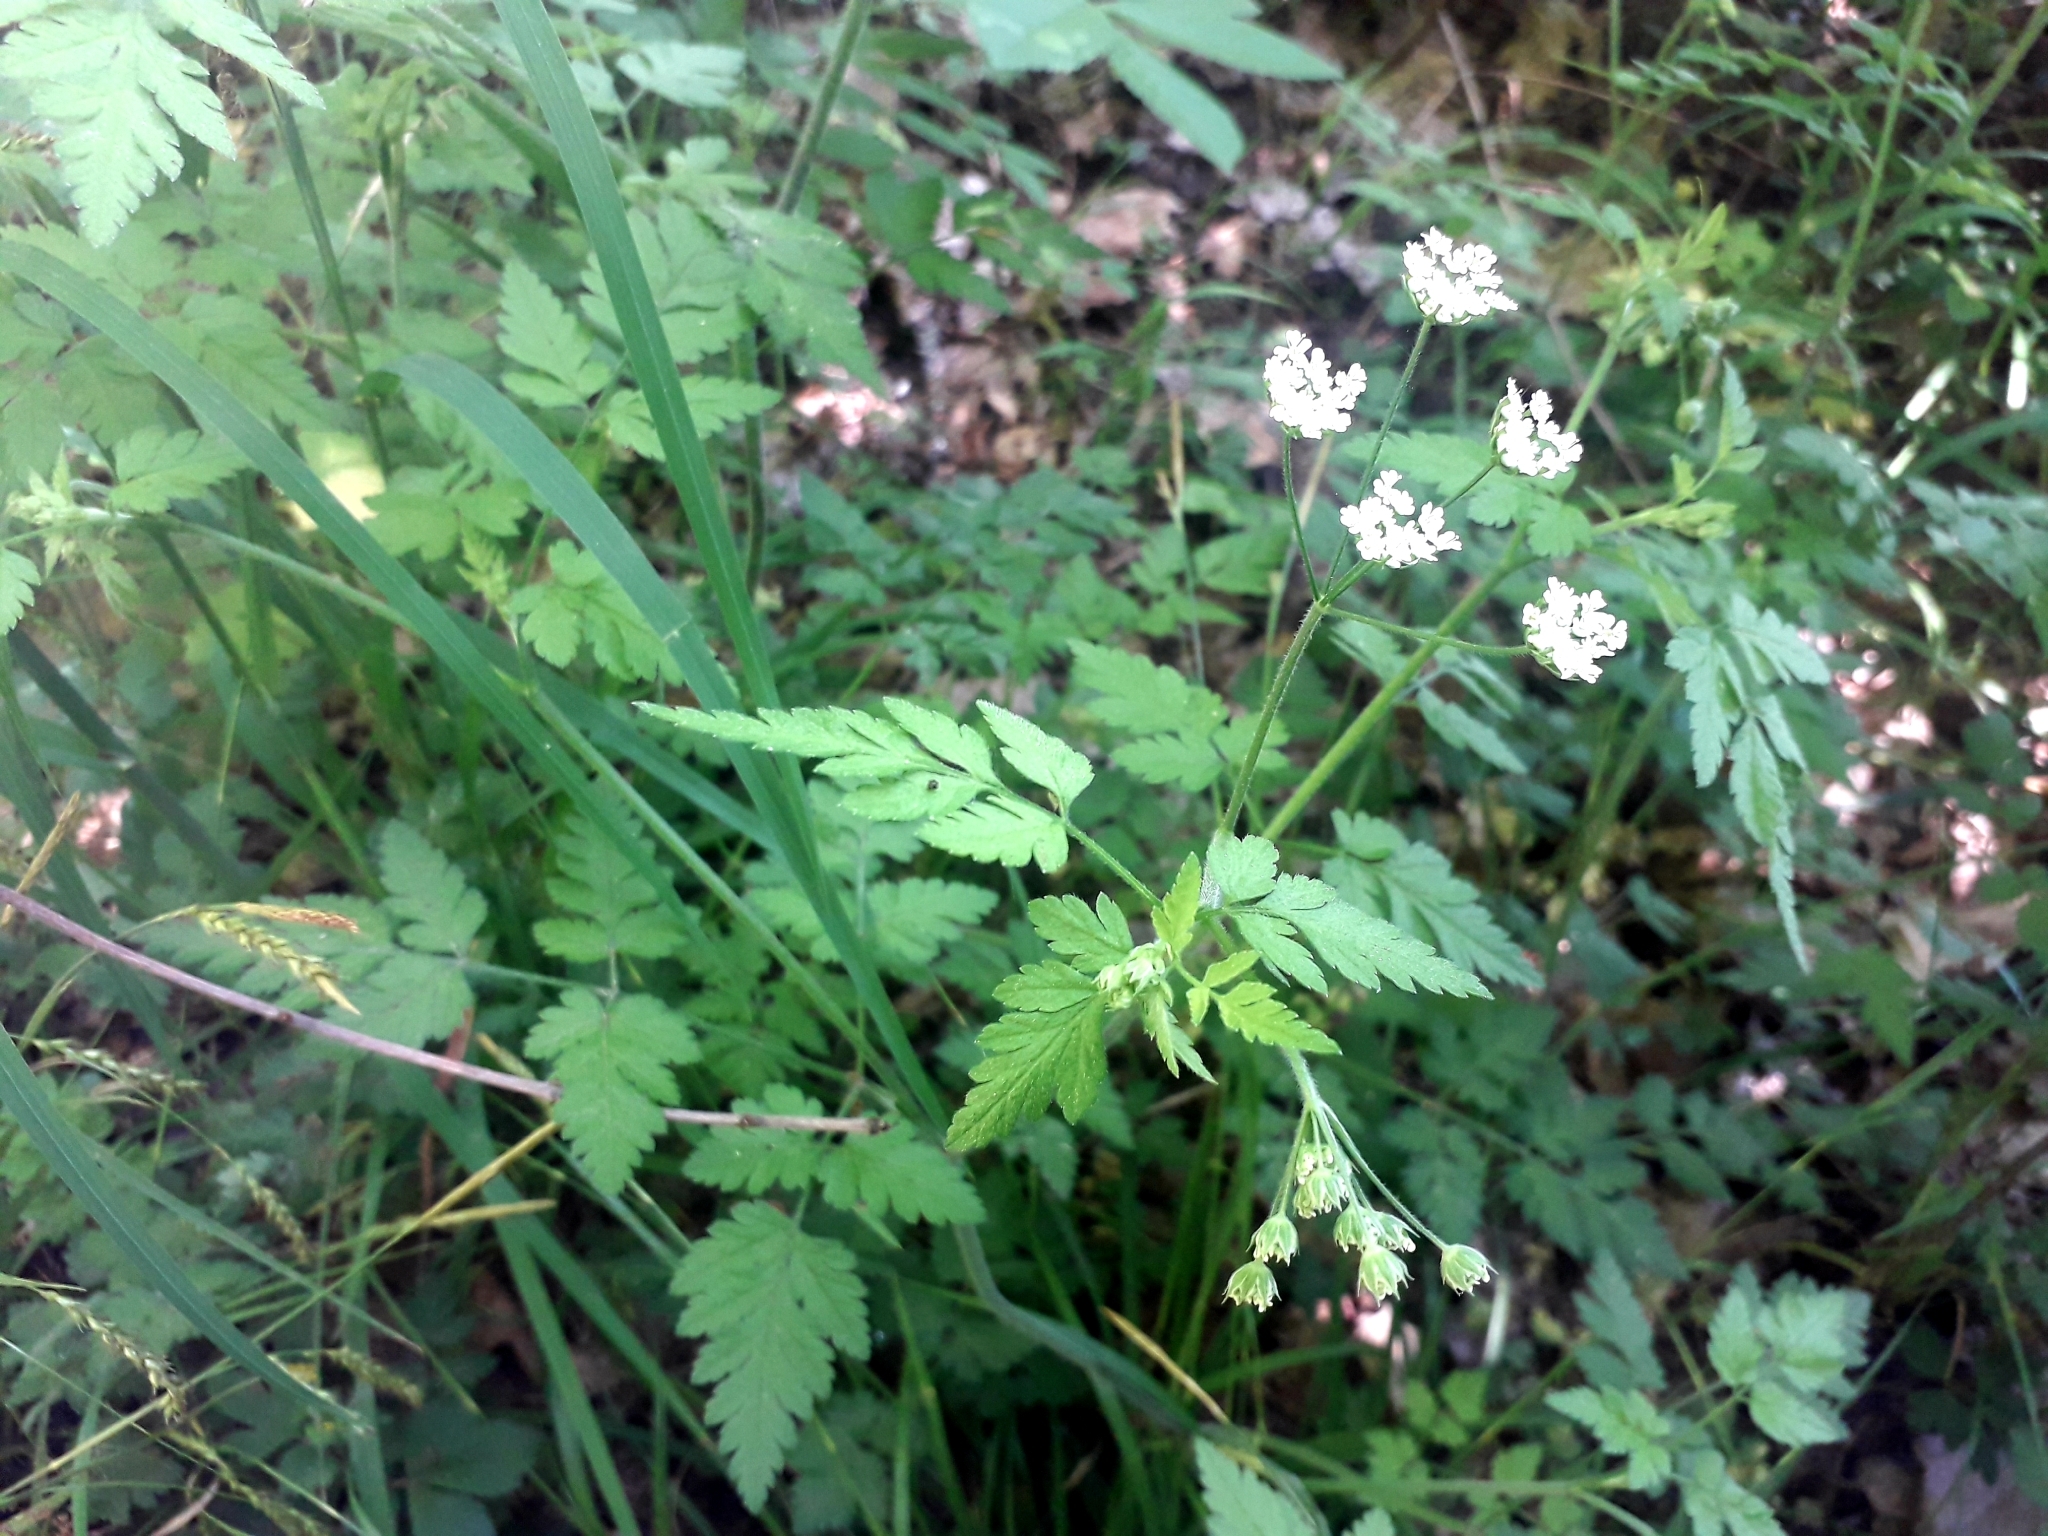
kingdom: Plantae
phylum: Tracheophyta
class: Magnoliopsida
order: Apiales
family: Apiaceae
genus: Chaerophyllum
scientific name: Chaerophyllum temulum
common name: Rough chervil
